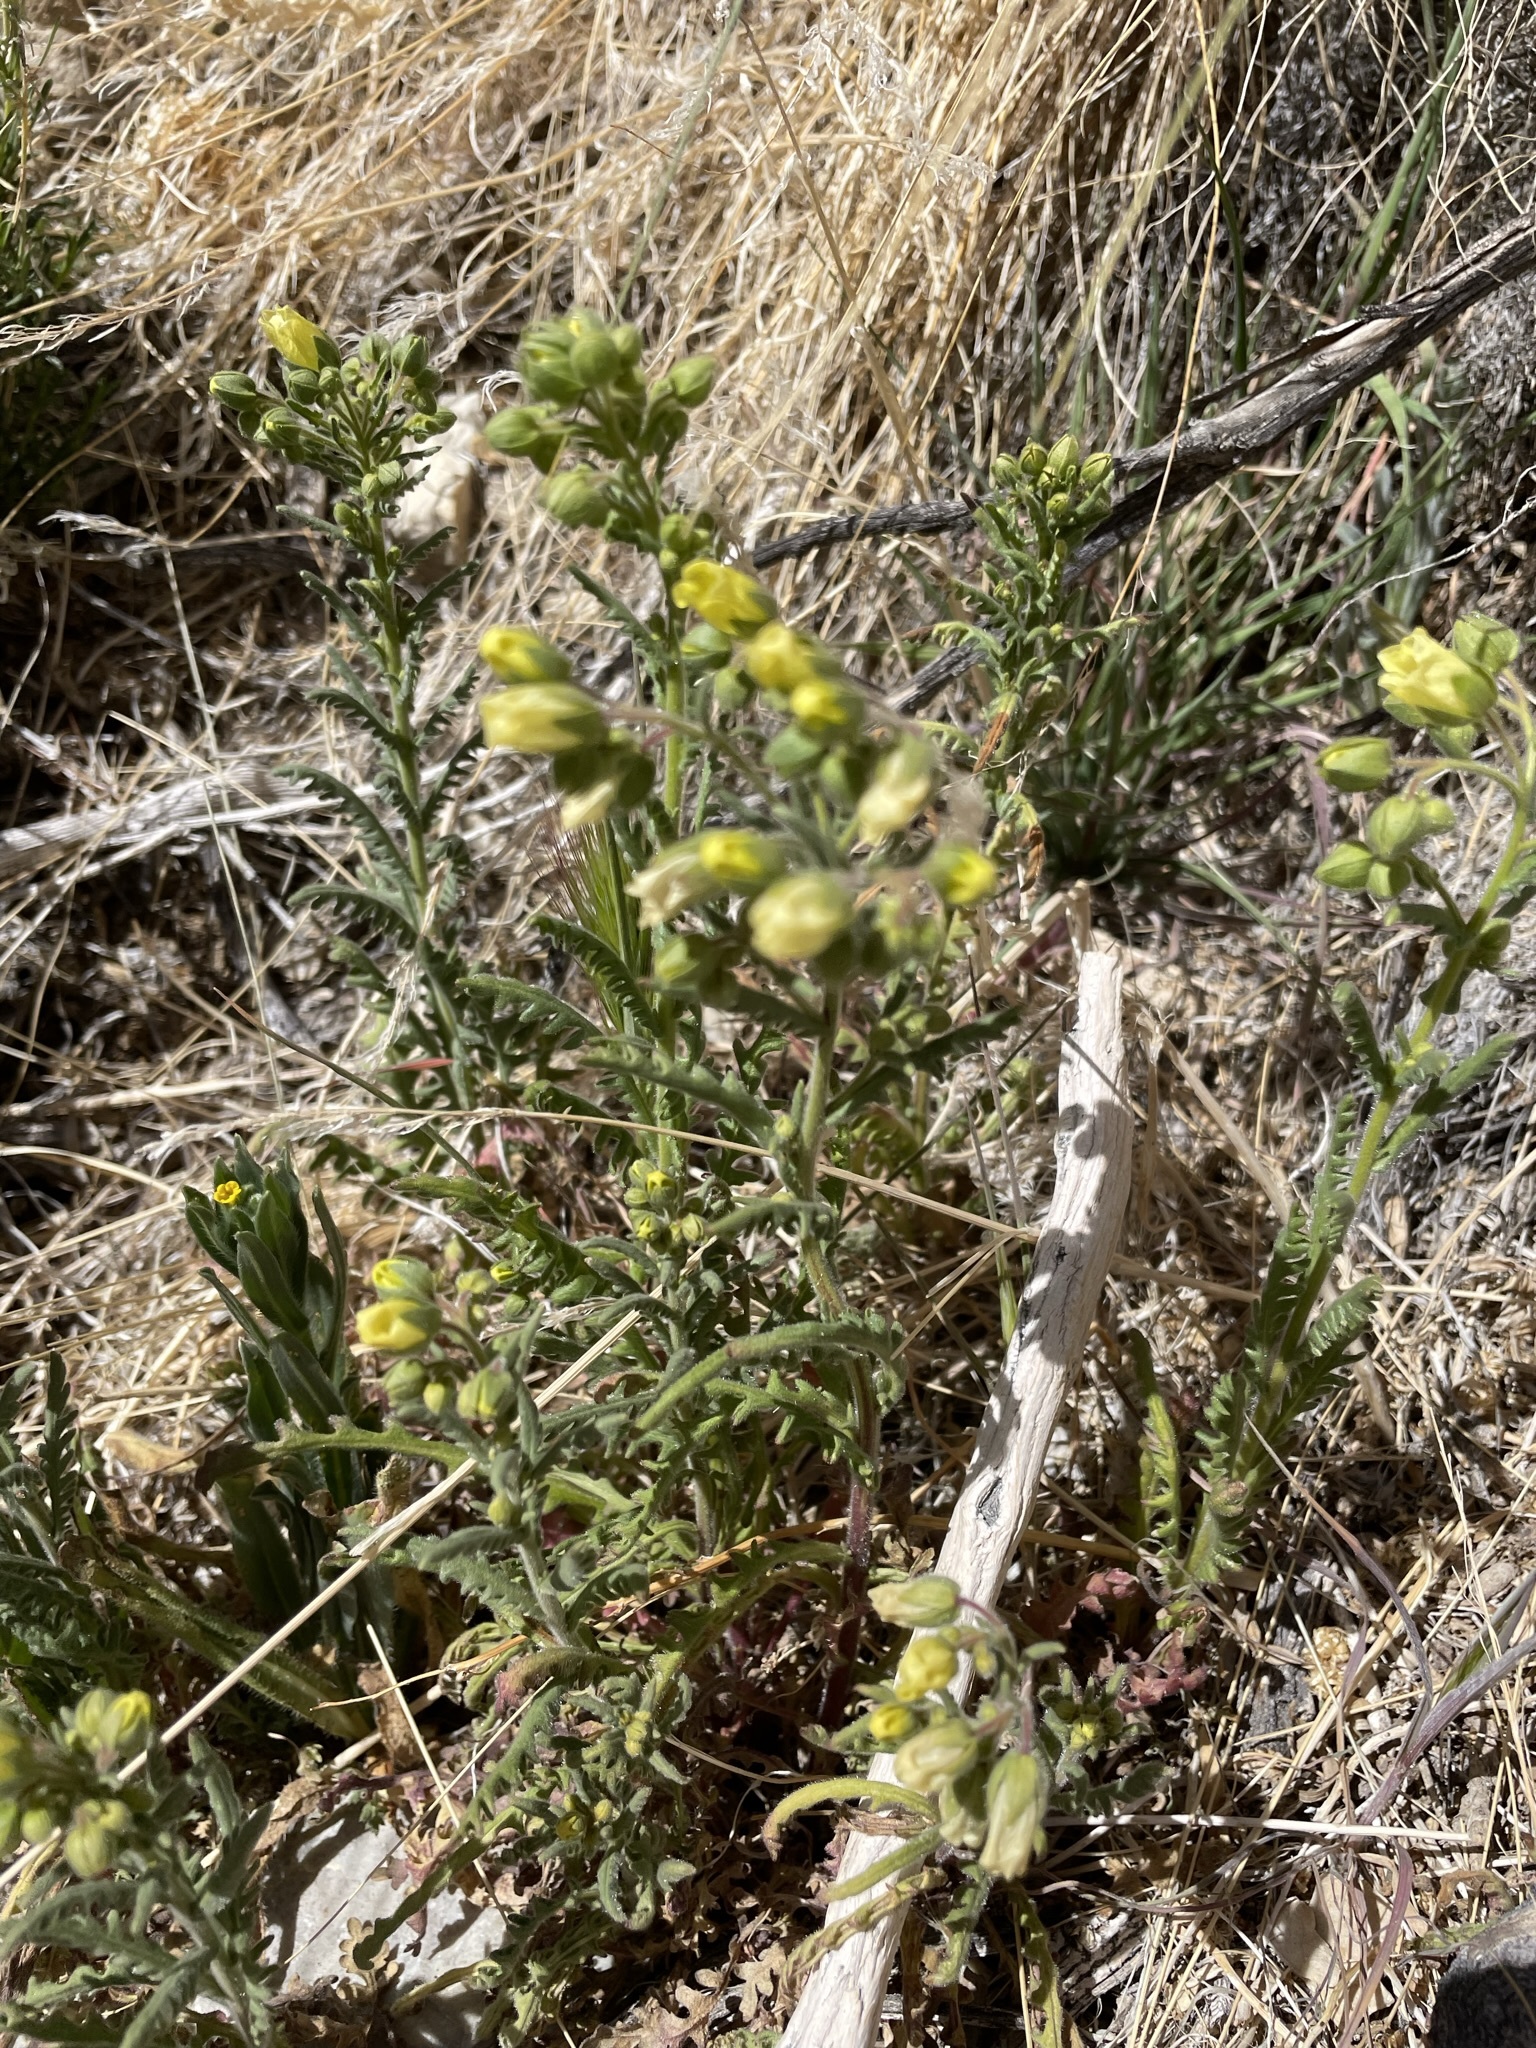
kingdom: Plantae
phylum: Tracheophyta
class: Magnoliopsida
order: Boraginales
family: Hydrophyllaceae
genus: Emmenanthe
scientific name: Emmenanthe penduliflora
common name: Whispering-bells
